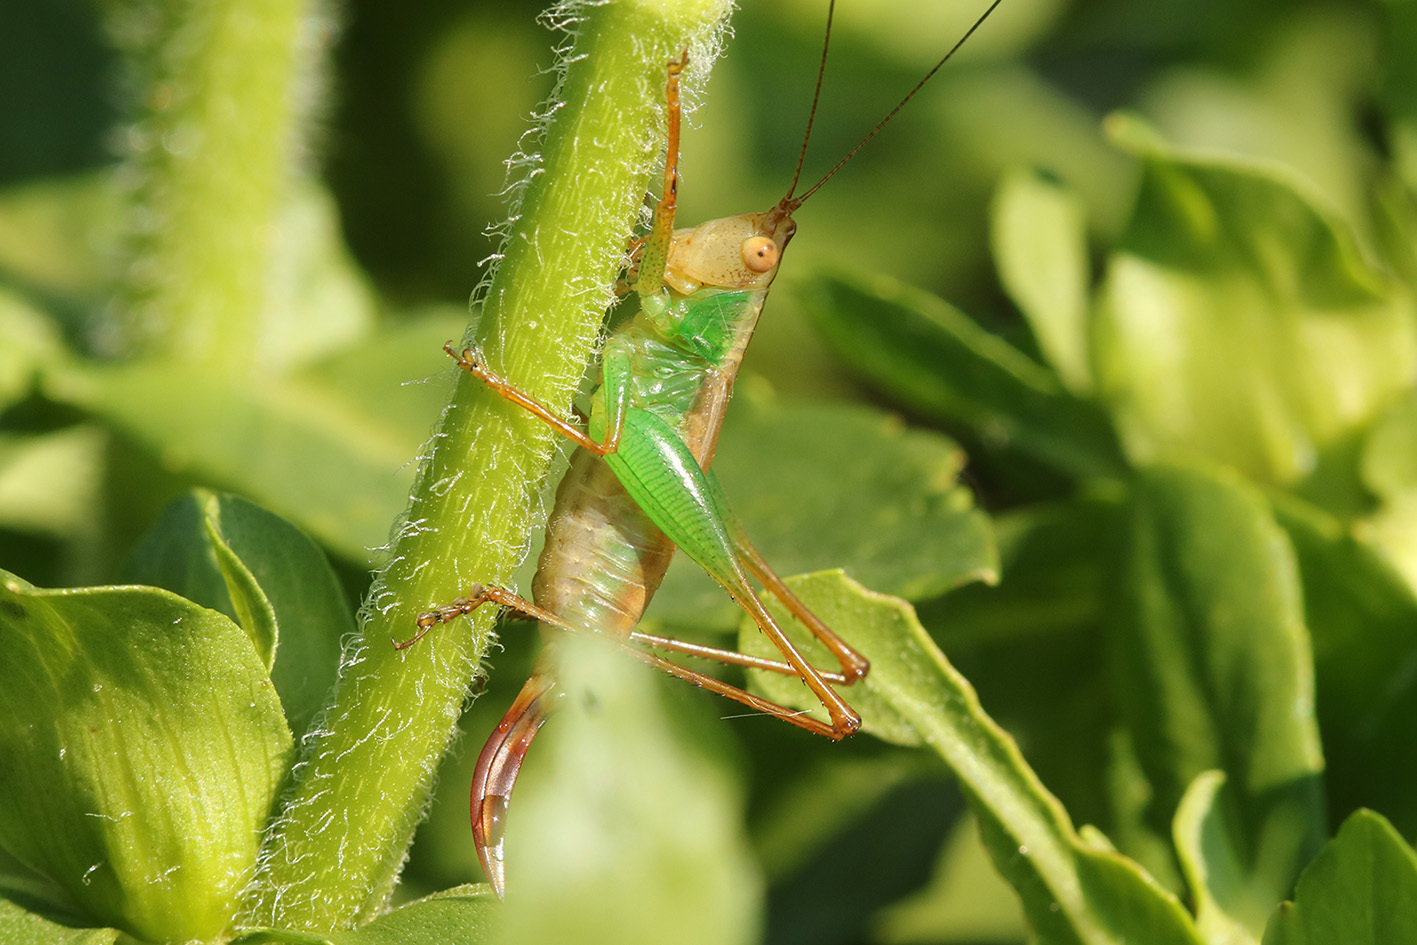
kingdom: Animalia
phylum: Arthropoda
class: Insecta
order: Orthoptera
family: Tettigoniidae
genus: Conocephalus
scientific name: Conocephalus cinnamonifrons
